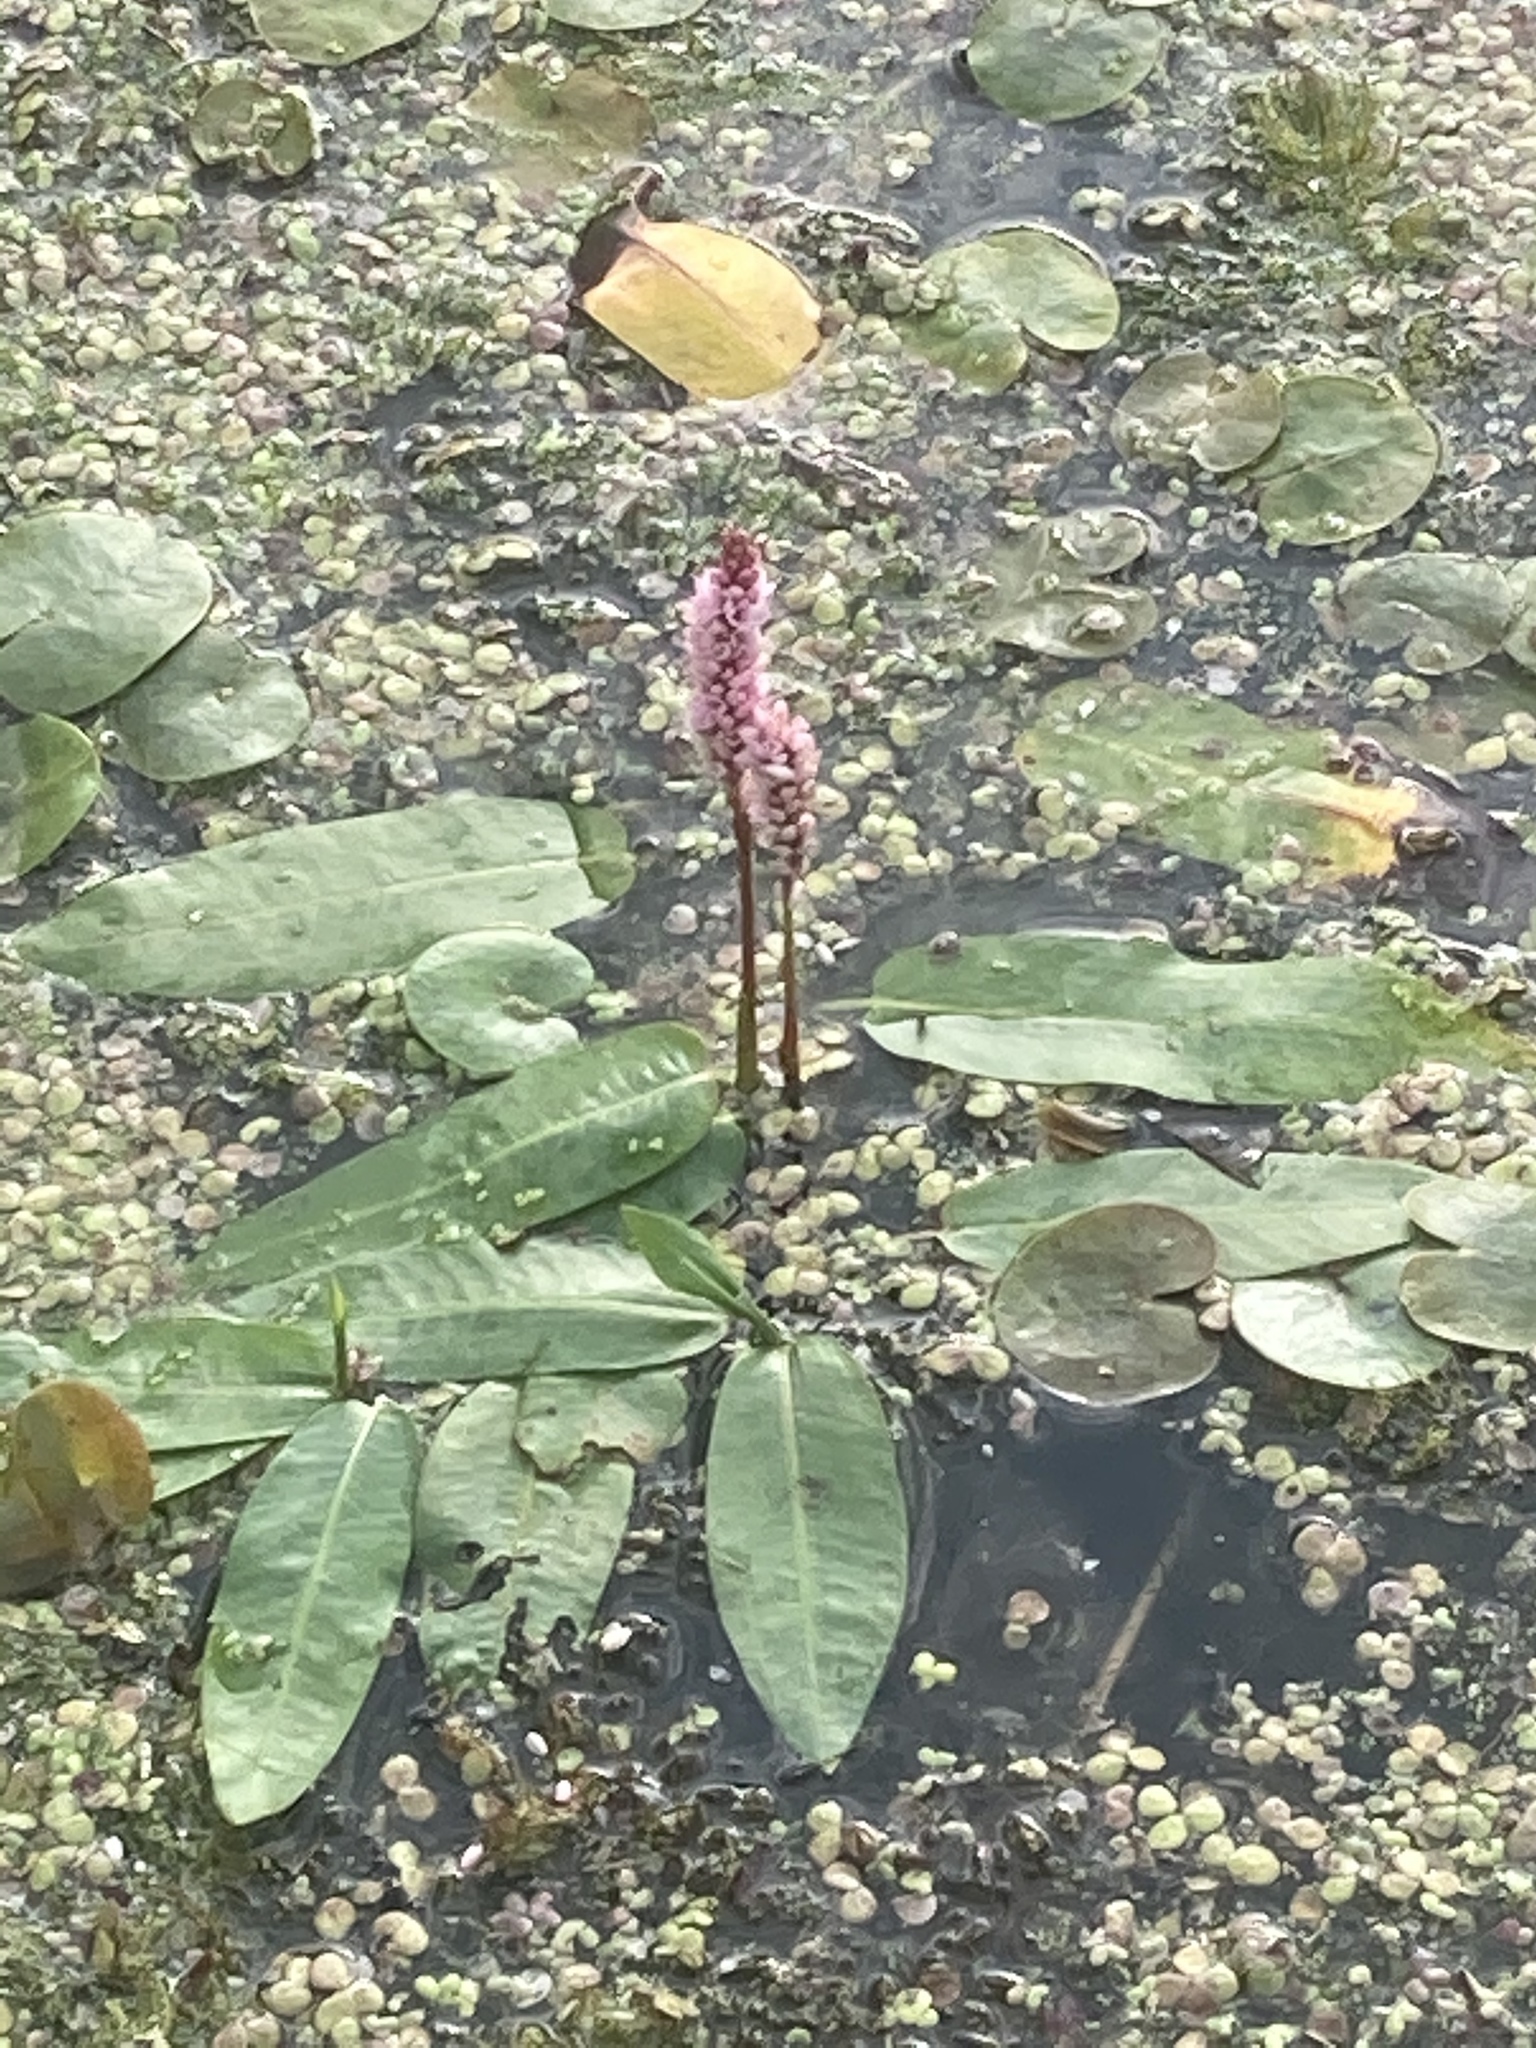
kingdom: Plantae
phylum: Tracheophyta
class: Magnoliopsida
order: Caryophyllales
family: Polygonaceae
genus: Persicaria
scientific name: Persicaria amphibia
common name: Amphibious bistort
